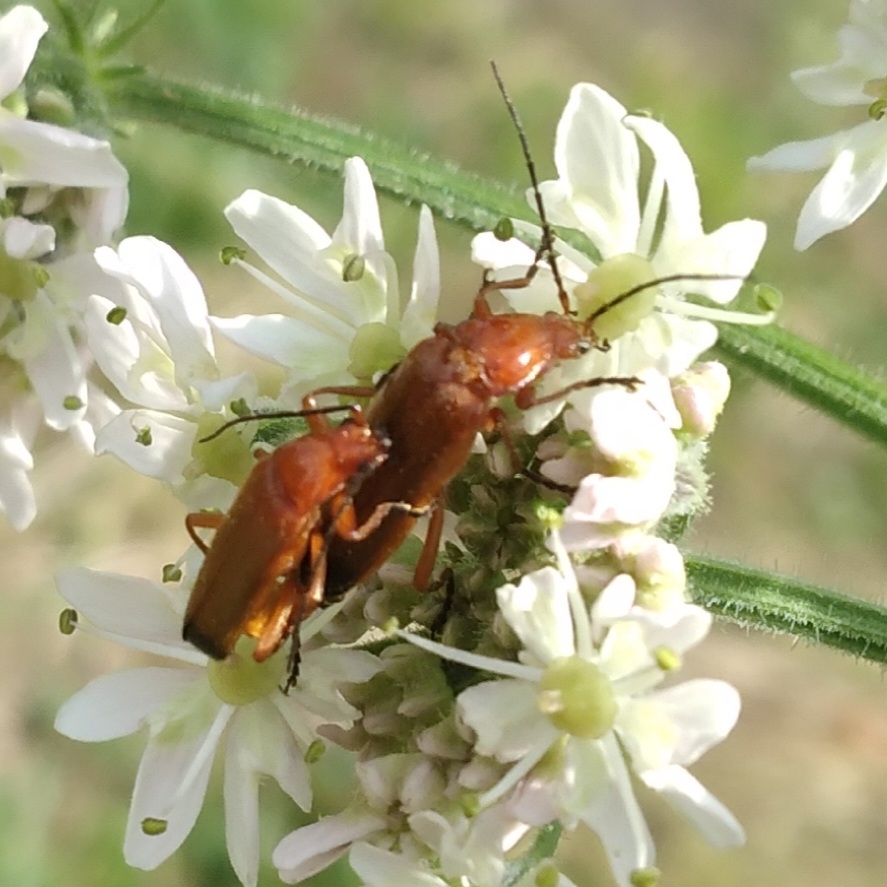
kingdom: Animalia
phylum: Arthropoda
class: Insecta
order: Coleoptera
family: Cantharidae
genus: Rhagonycha
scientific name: Rhagonycha fulva
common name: Common red soldier beetle
